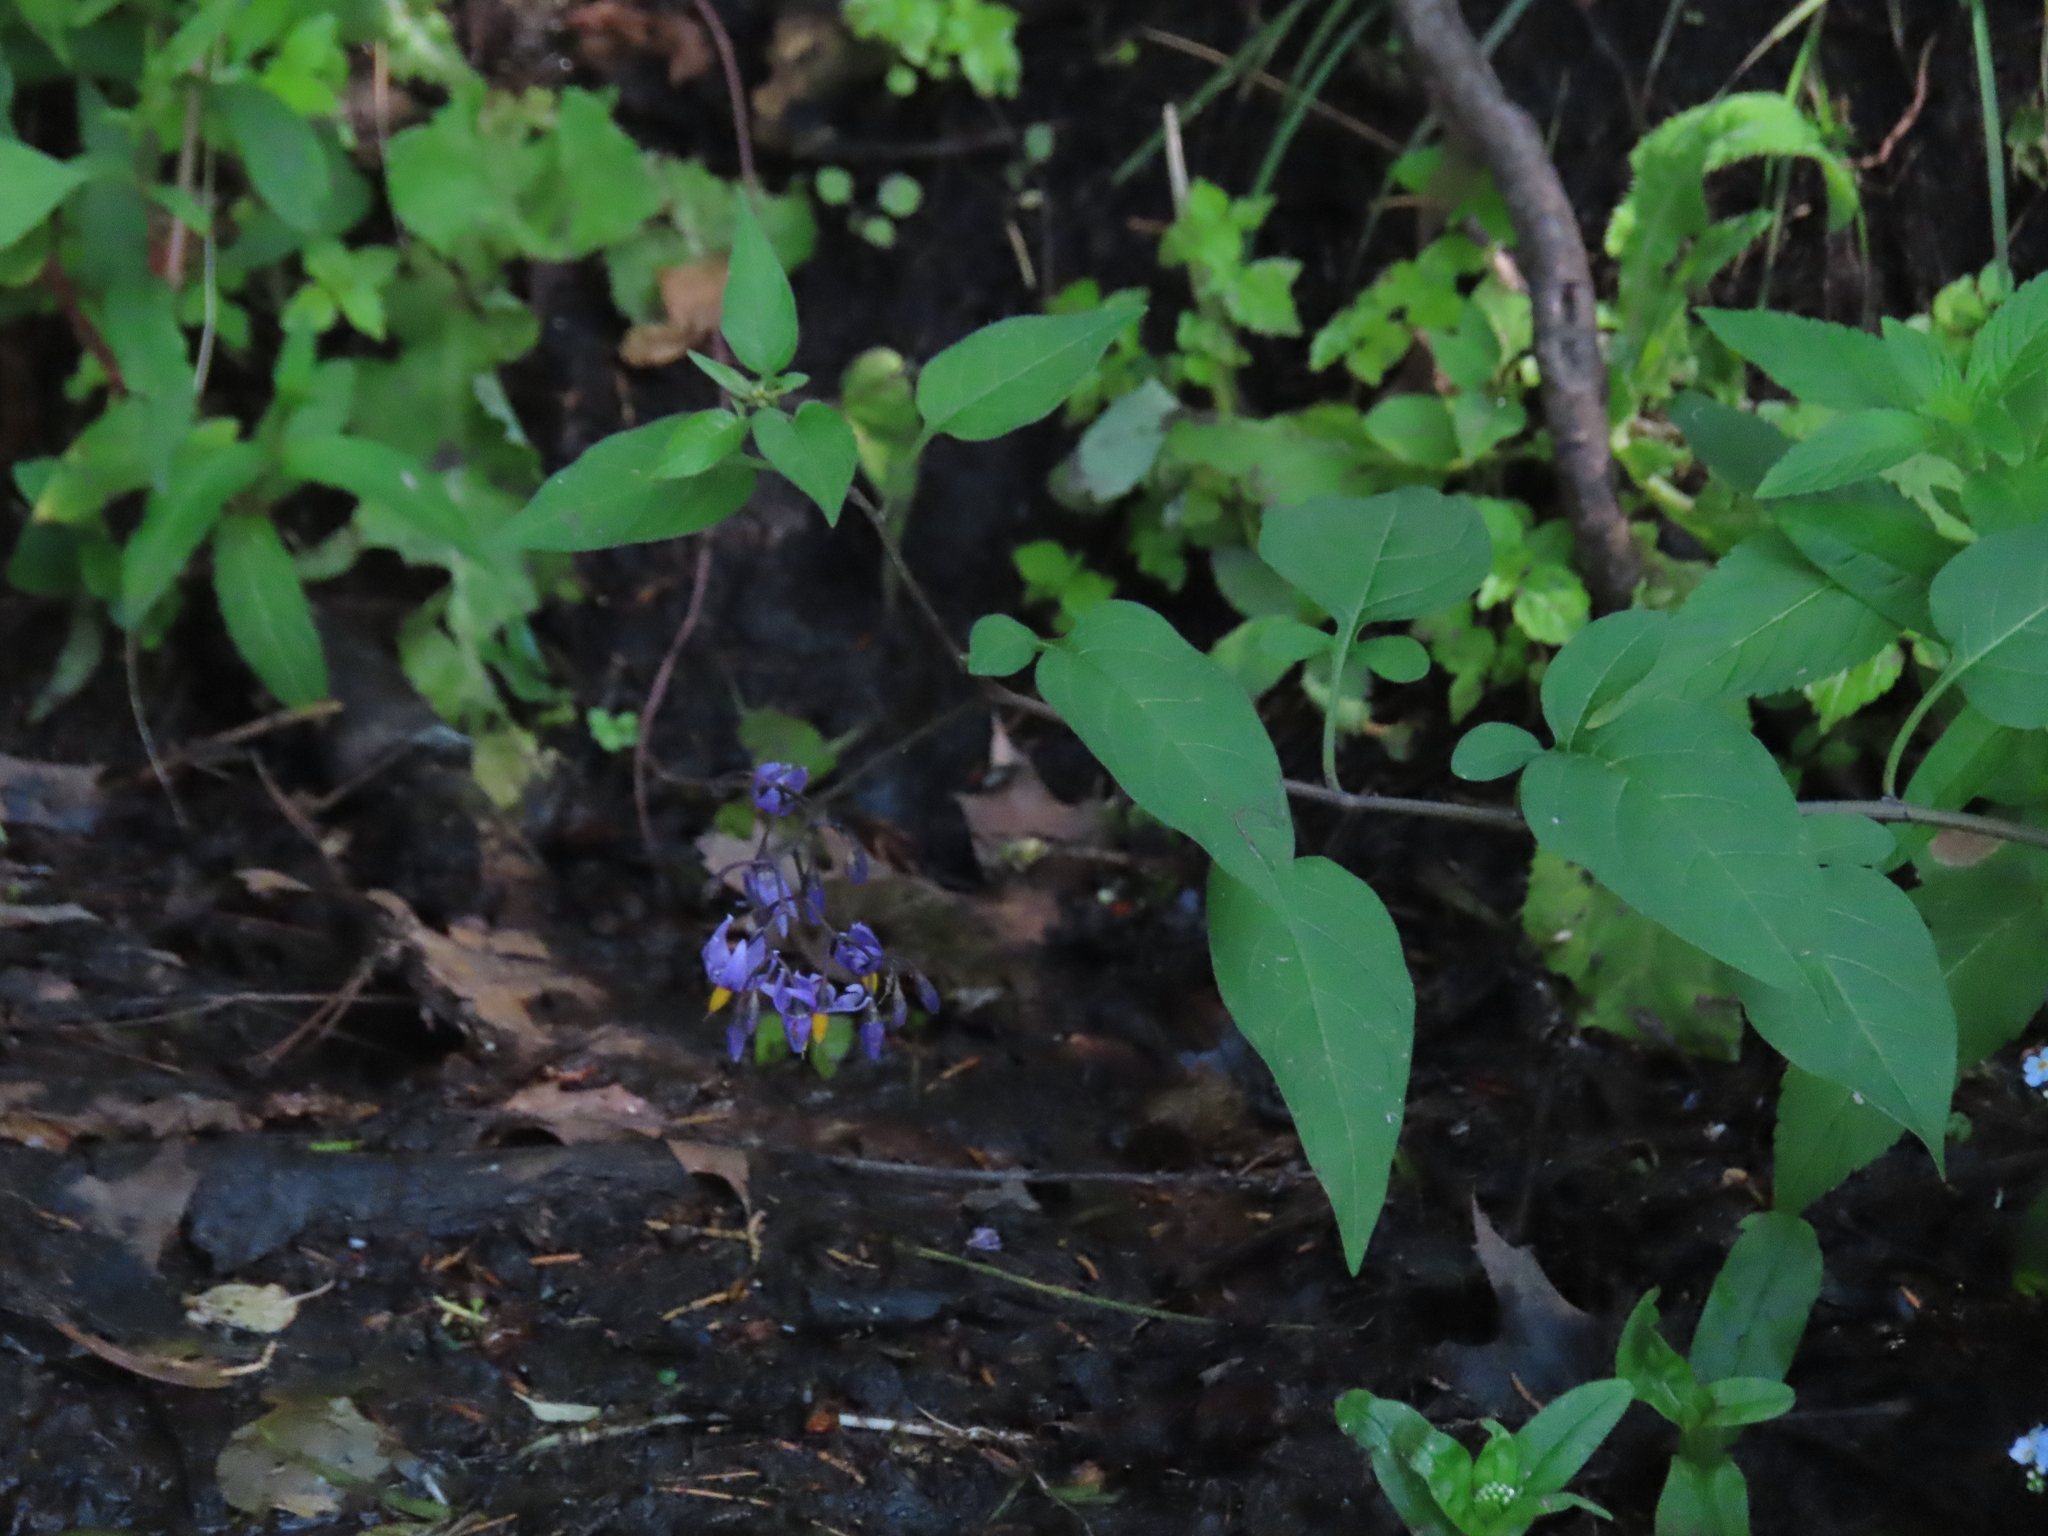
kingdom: Plantae
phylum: Tracheophyta
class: Magnoliopsida
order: Solanales
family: Solanaceae
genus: Solanum
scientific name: Solanum dulcamara
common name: Climbing nightshade
